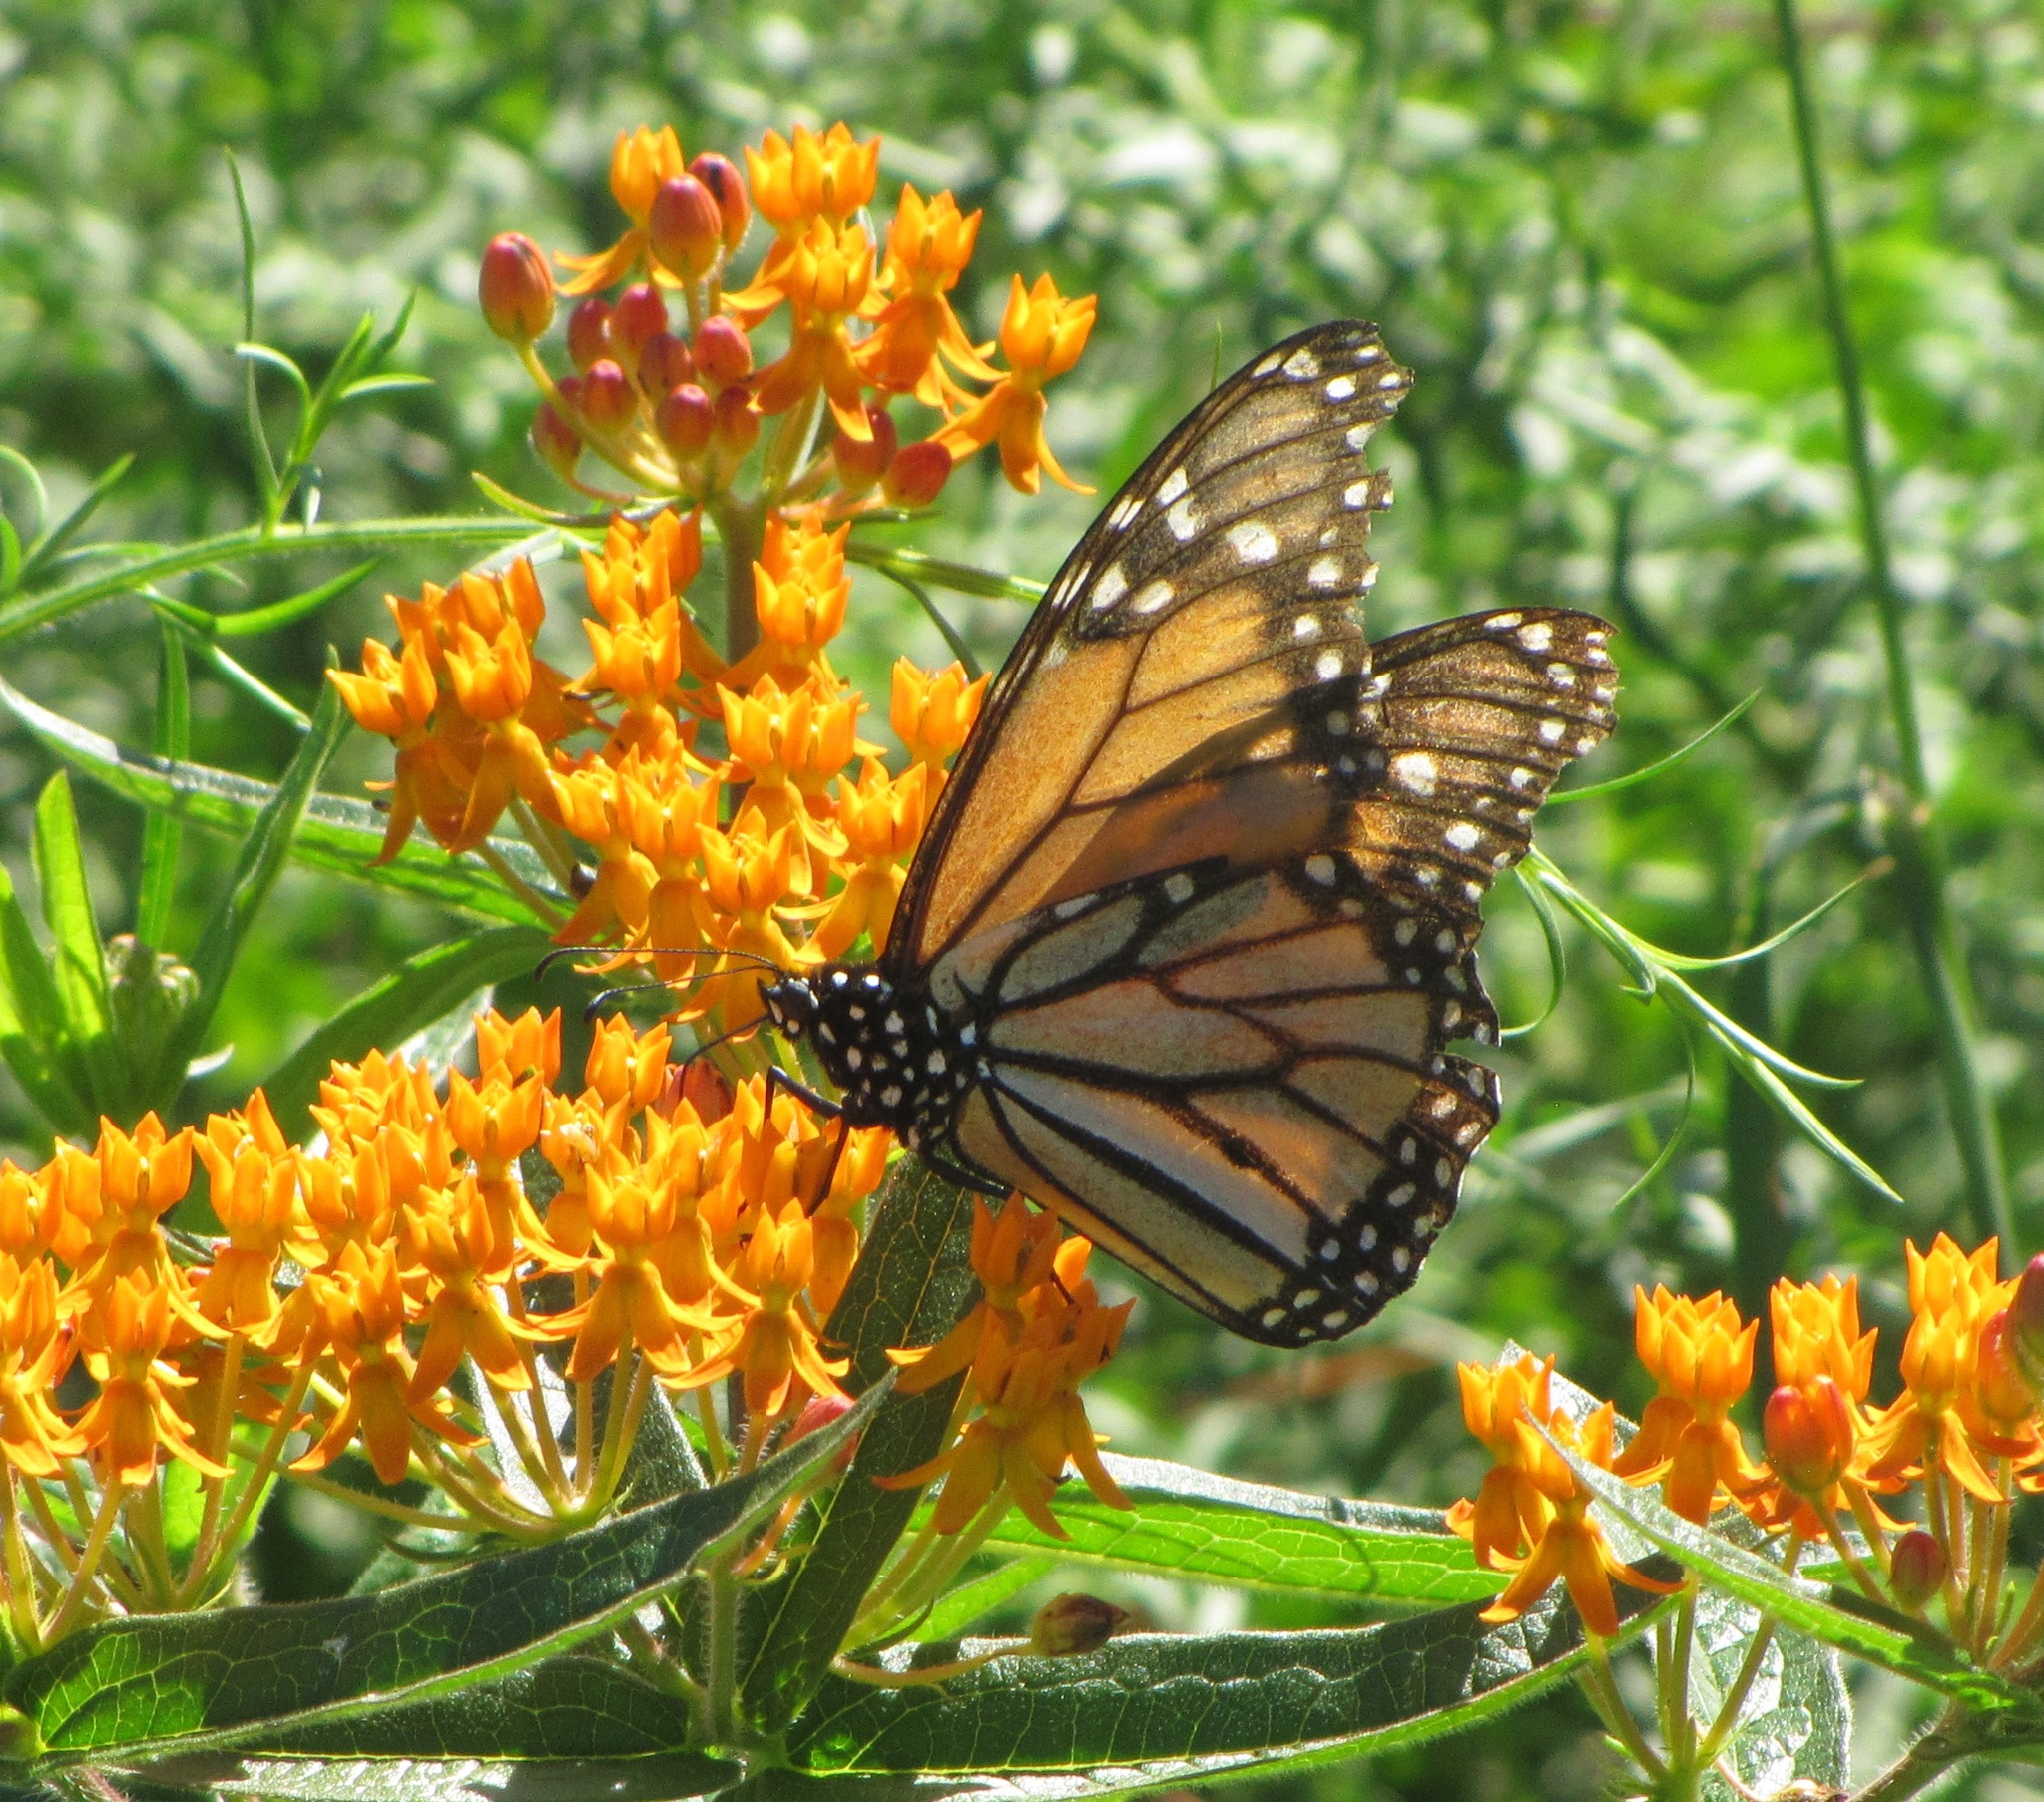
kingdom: Animalia
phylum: Arthropoda
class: Insecta
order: Lepidoptera
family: Nymphalidae
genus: Danaus
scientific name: Danaus plexippus
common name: Monarch
